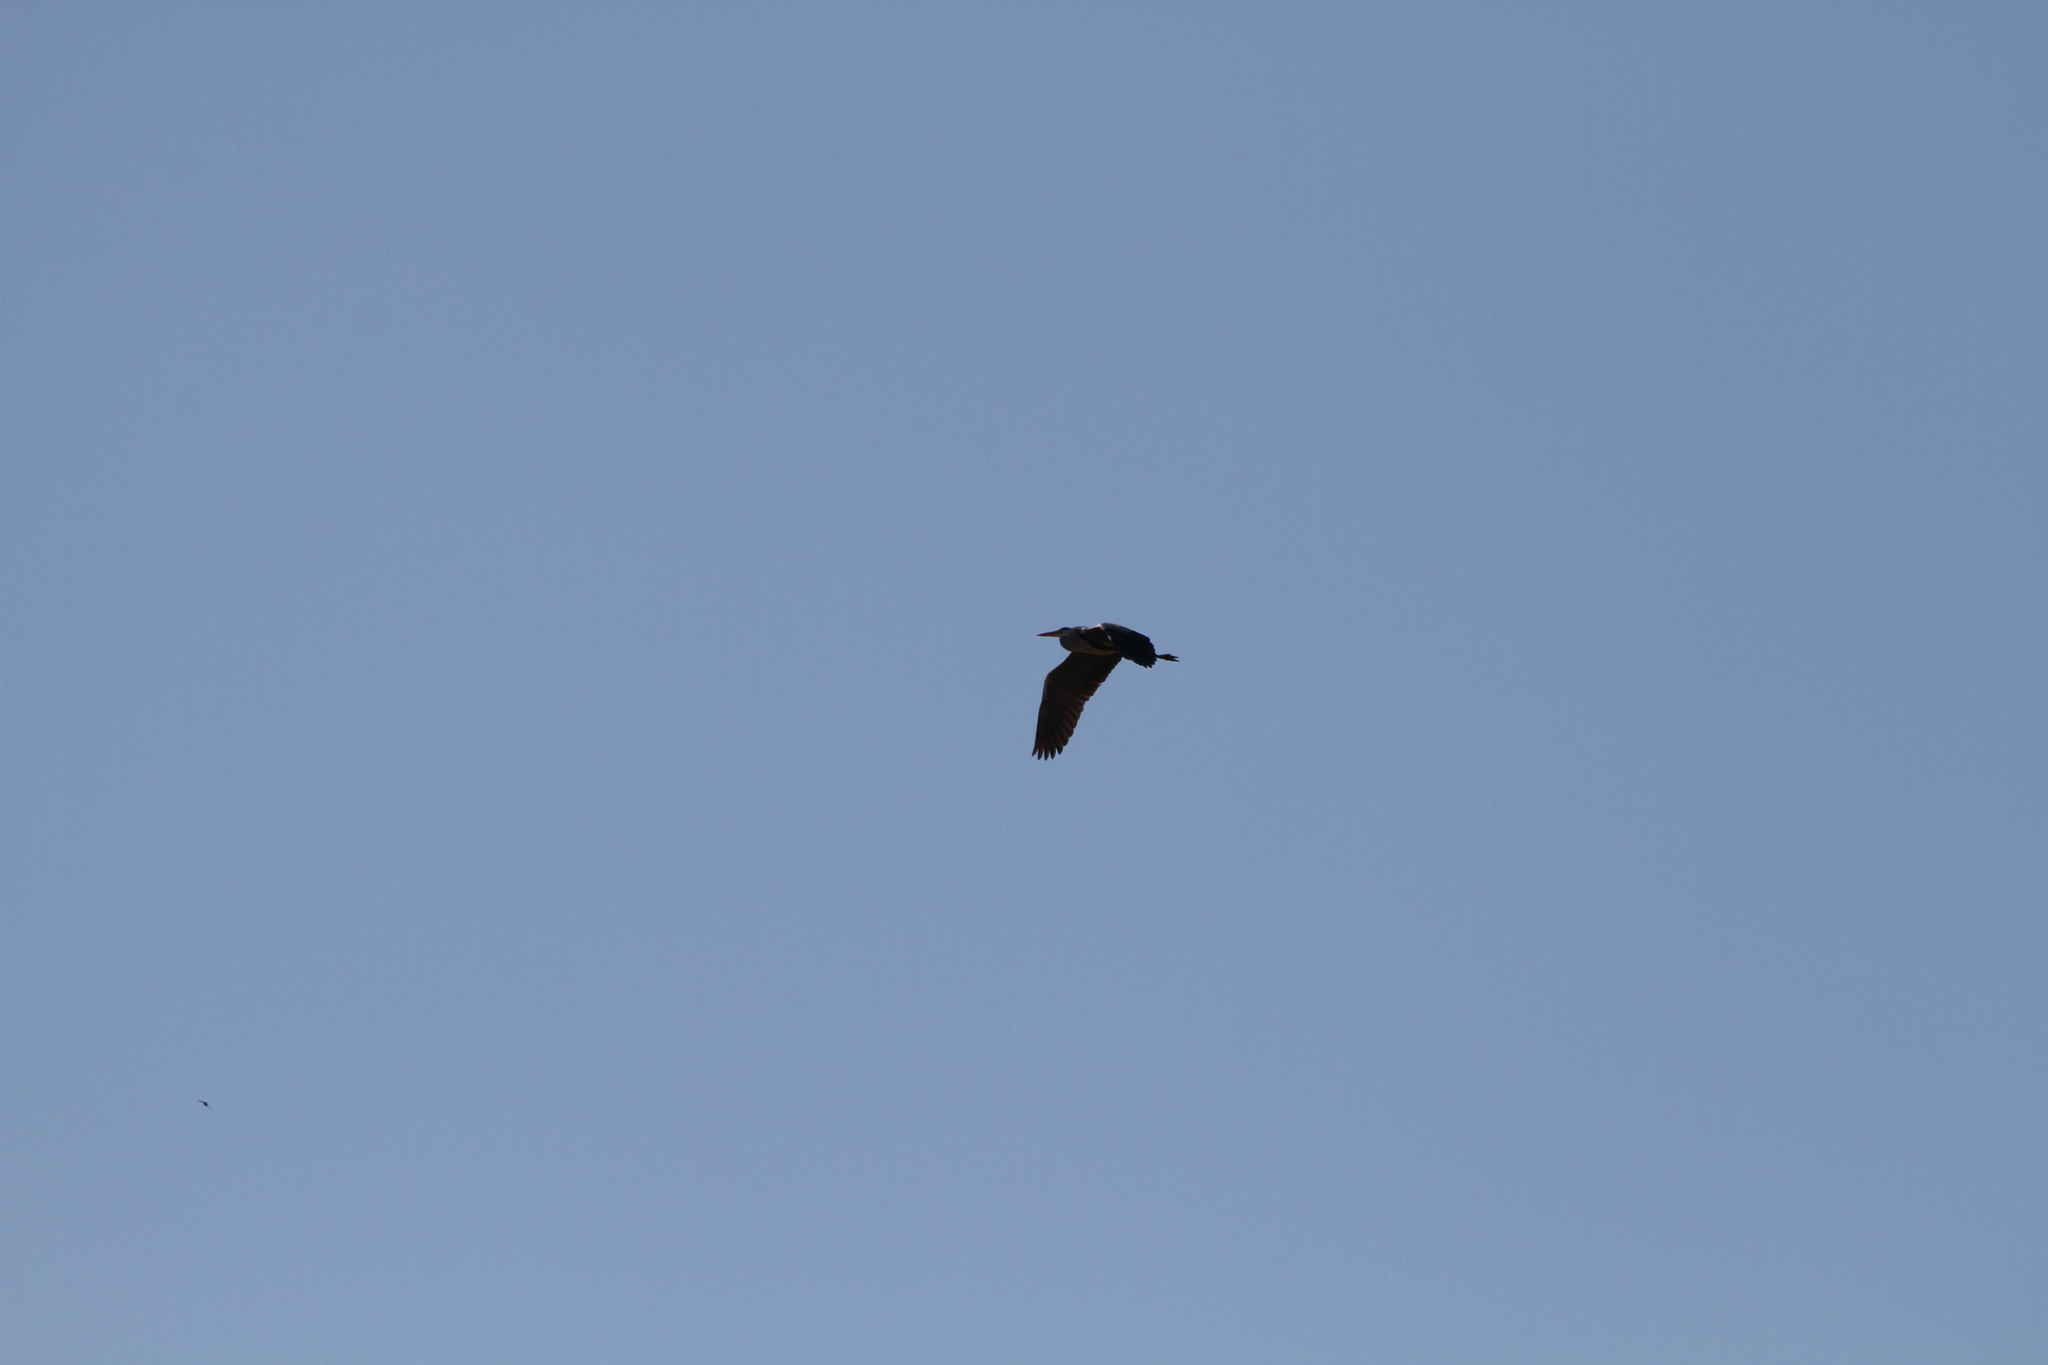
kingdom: Animalia
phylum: Chordata
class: Aves
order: Pelecaniformes
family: Ardeidae
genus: Ardea
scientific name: Ardea cinerea
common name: Grey heron
